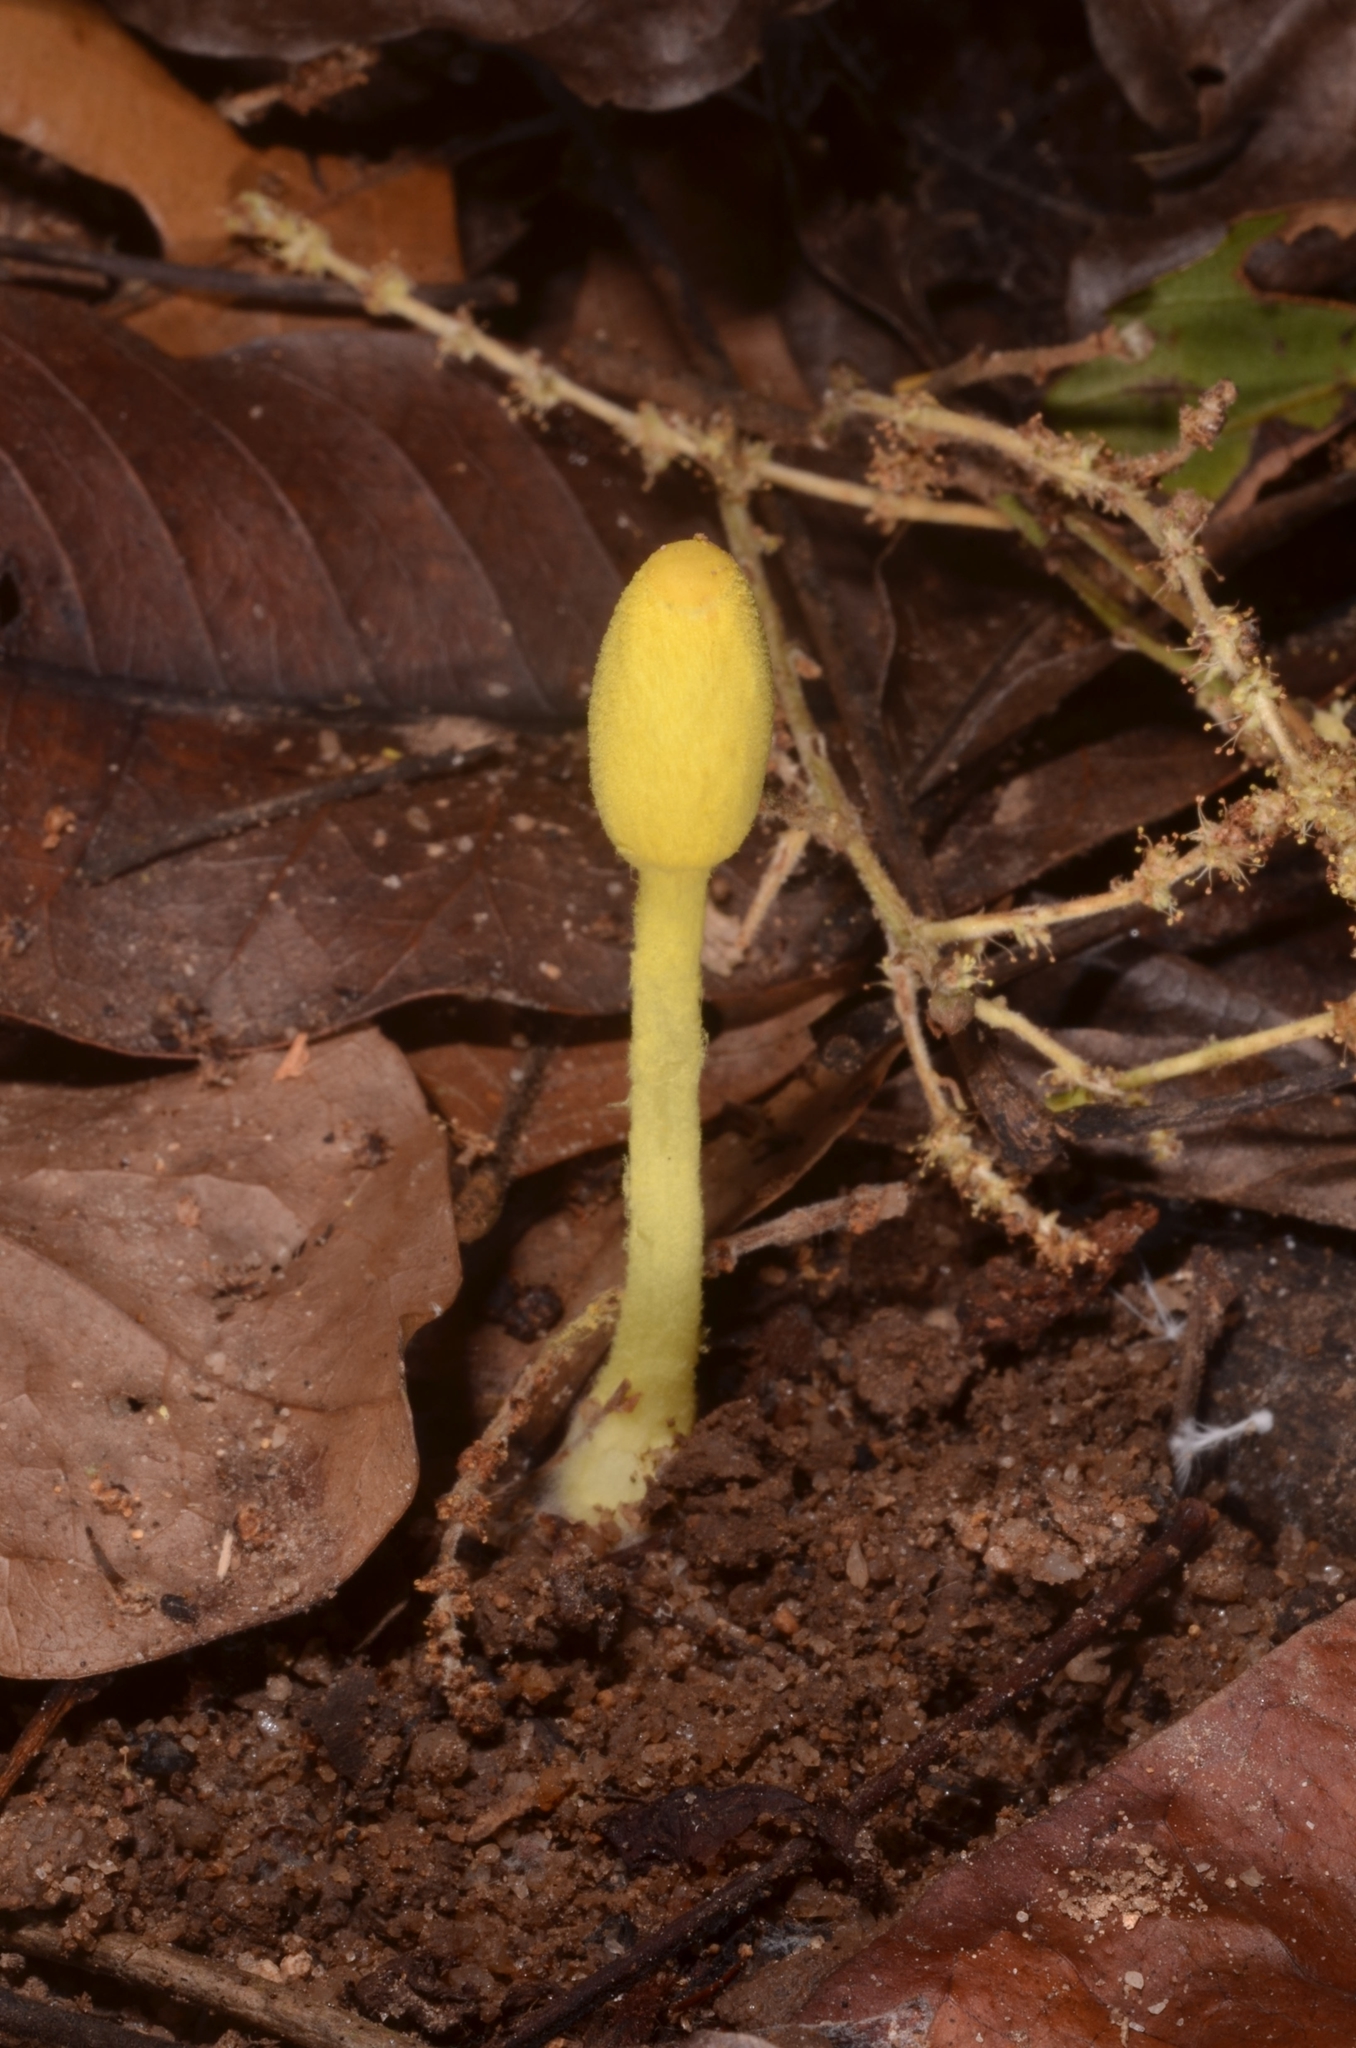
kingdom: Fungi
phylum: Basidiomycota
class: Agaricomycetes
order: Agaricales
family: Agaricaceae
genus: Leucocoprinus
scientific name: Leucocoprinus fragilissimus
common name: Fragile dapperling
